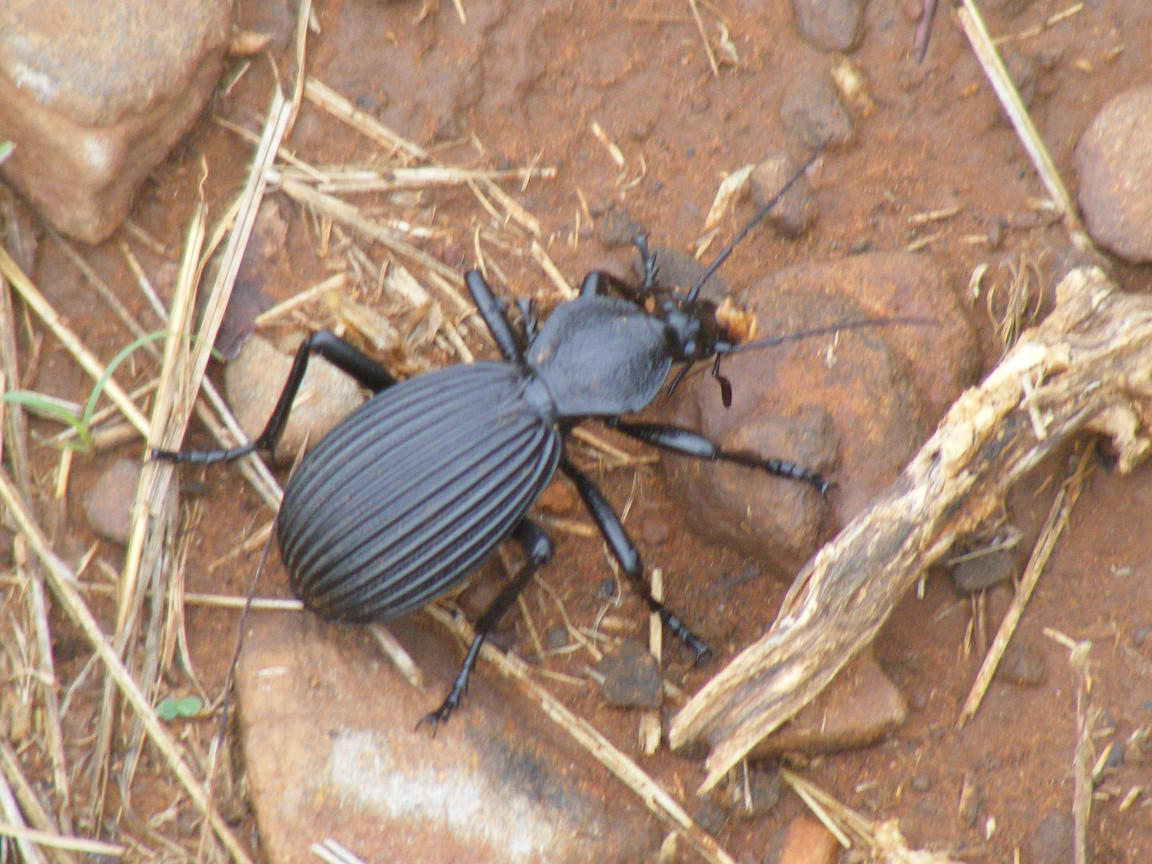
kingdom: Animalia
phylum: Arthropoda
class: Insecta
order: Coleoptera
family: Carabidae
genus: Tefflus
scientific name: Tefflus meyerlei
